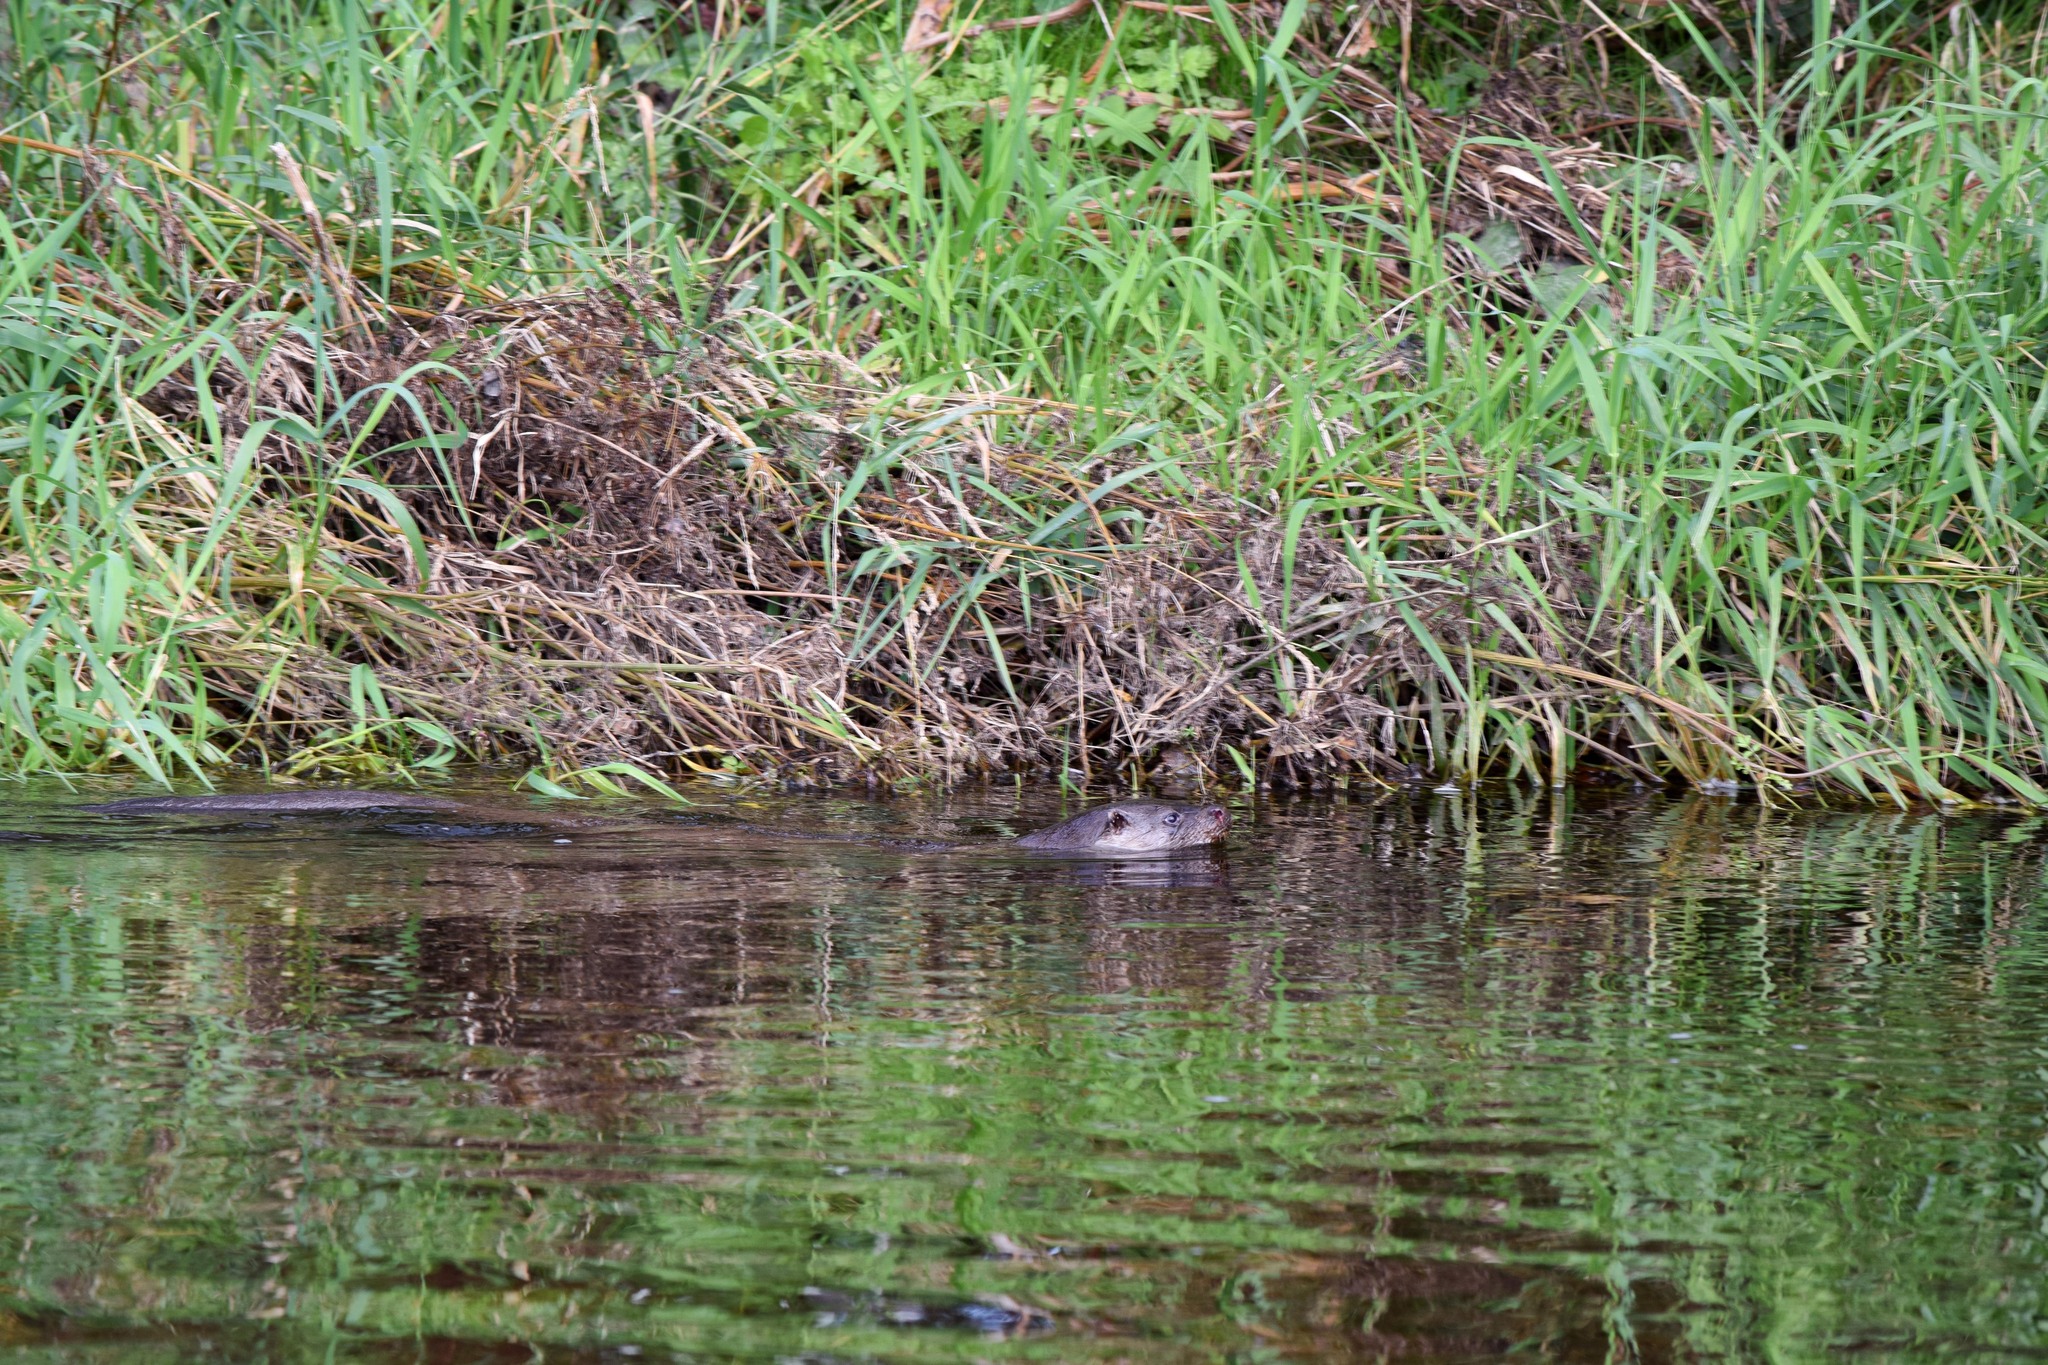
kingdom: Animalia
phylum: Chordata
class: Mammalia
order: Carnivora
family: Mustelidae
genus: Lutra
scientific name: Lutra lutra
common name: European otter
